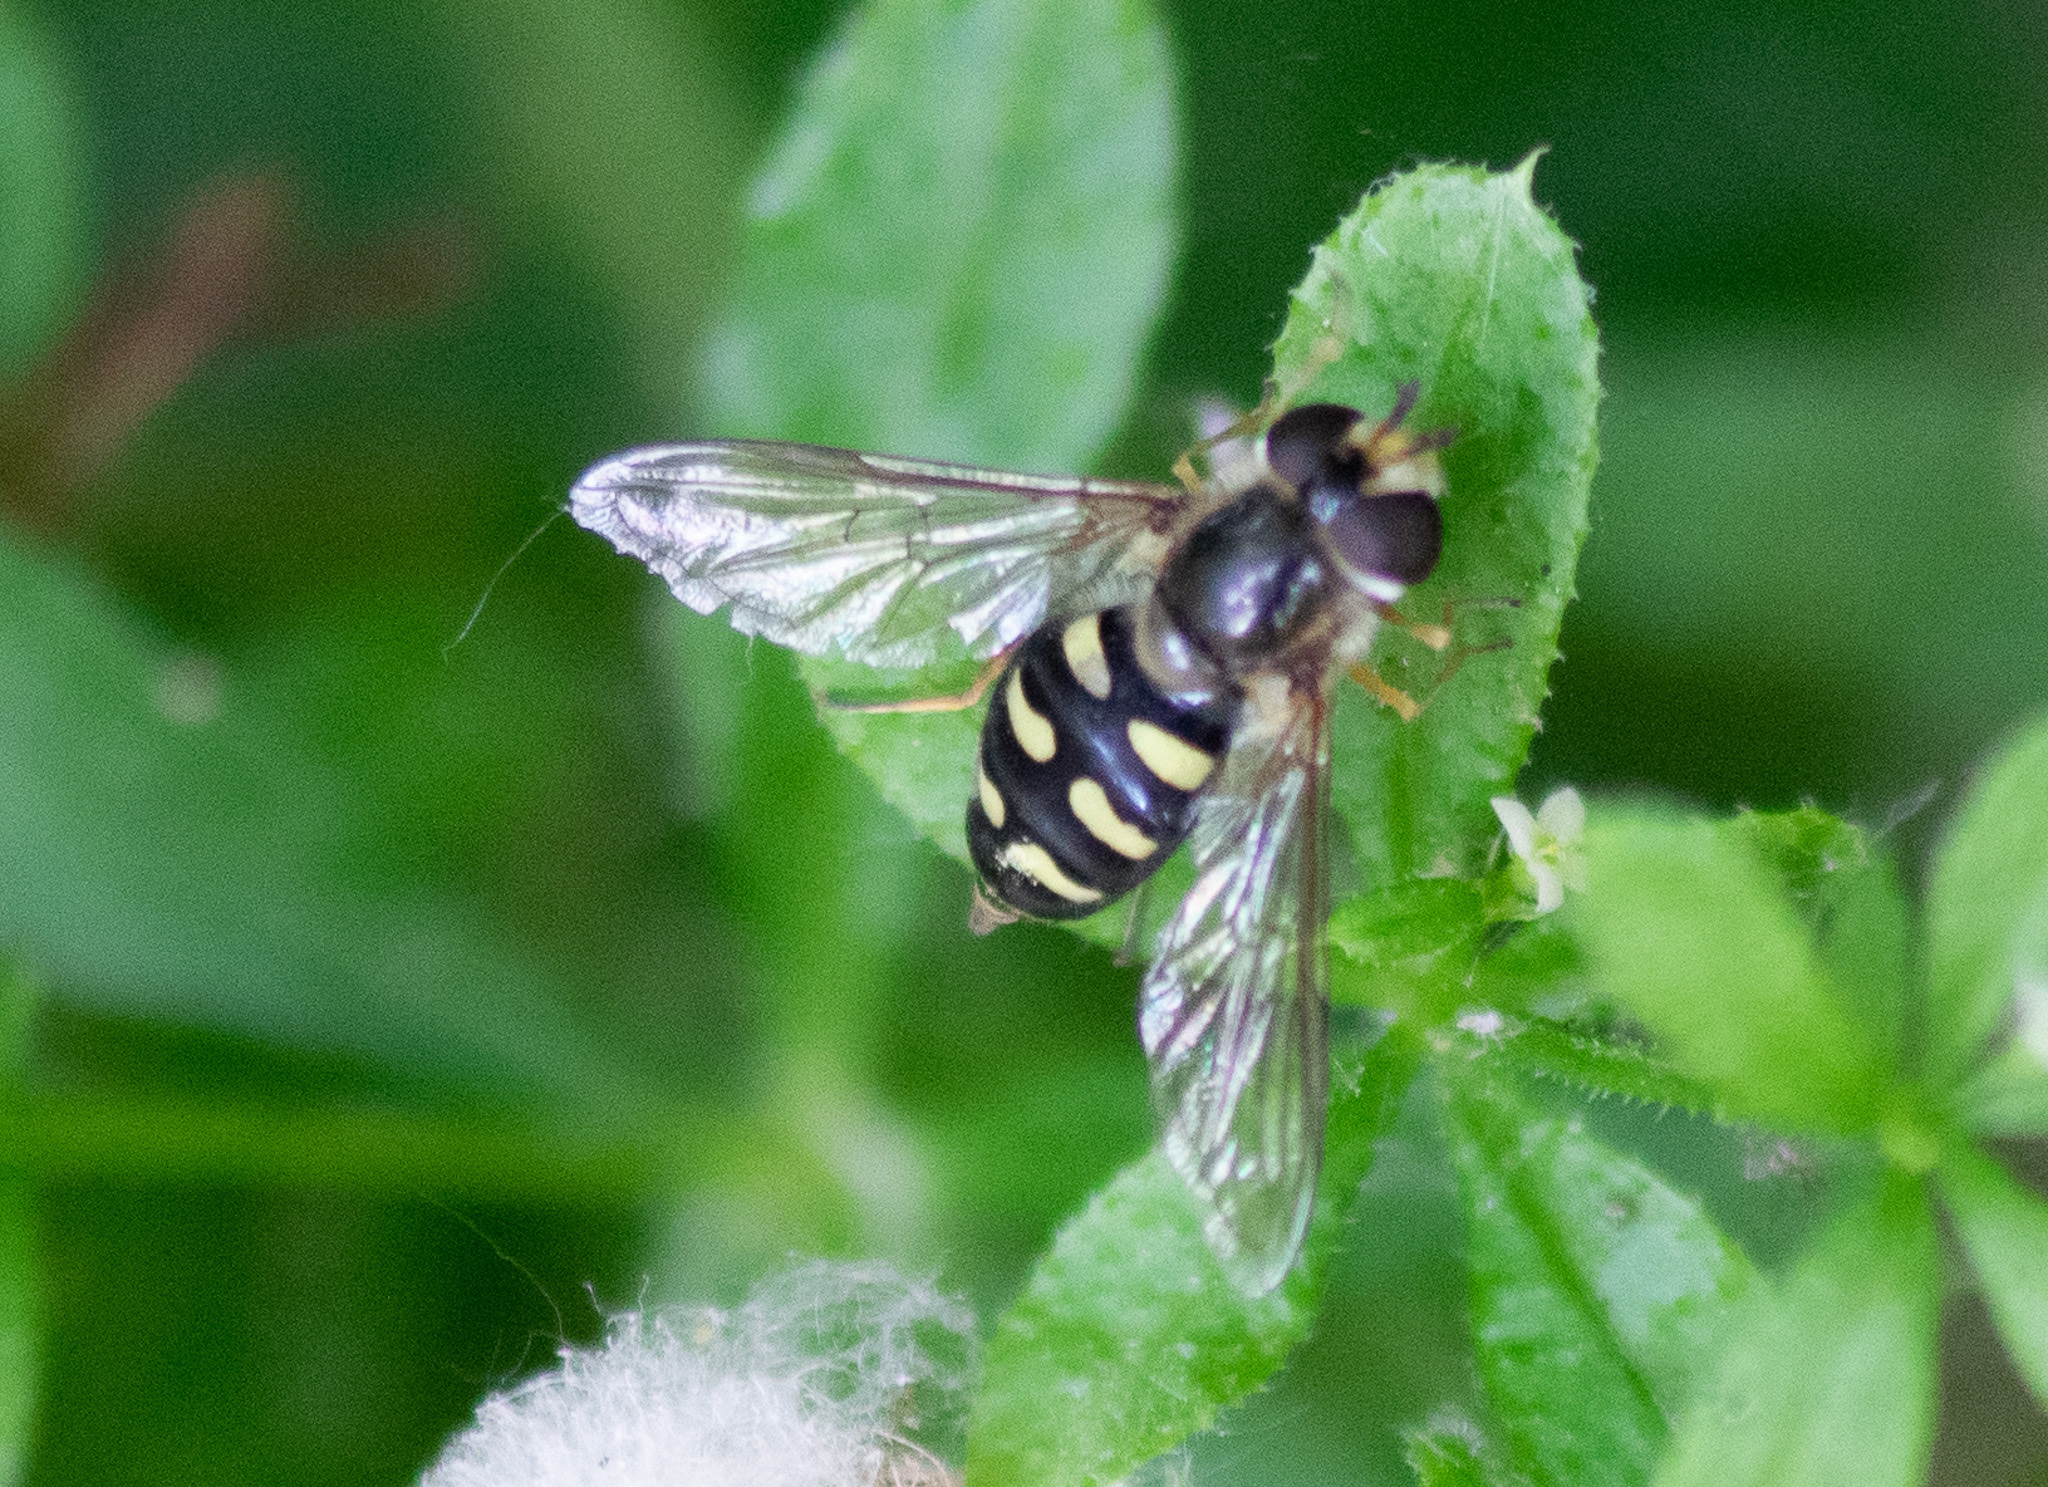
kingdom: Animalia
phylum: Arthropoda
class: Insecta
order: Diptera
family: Syrphidae
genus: Eupeodes
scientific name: Eupeodes
